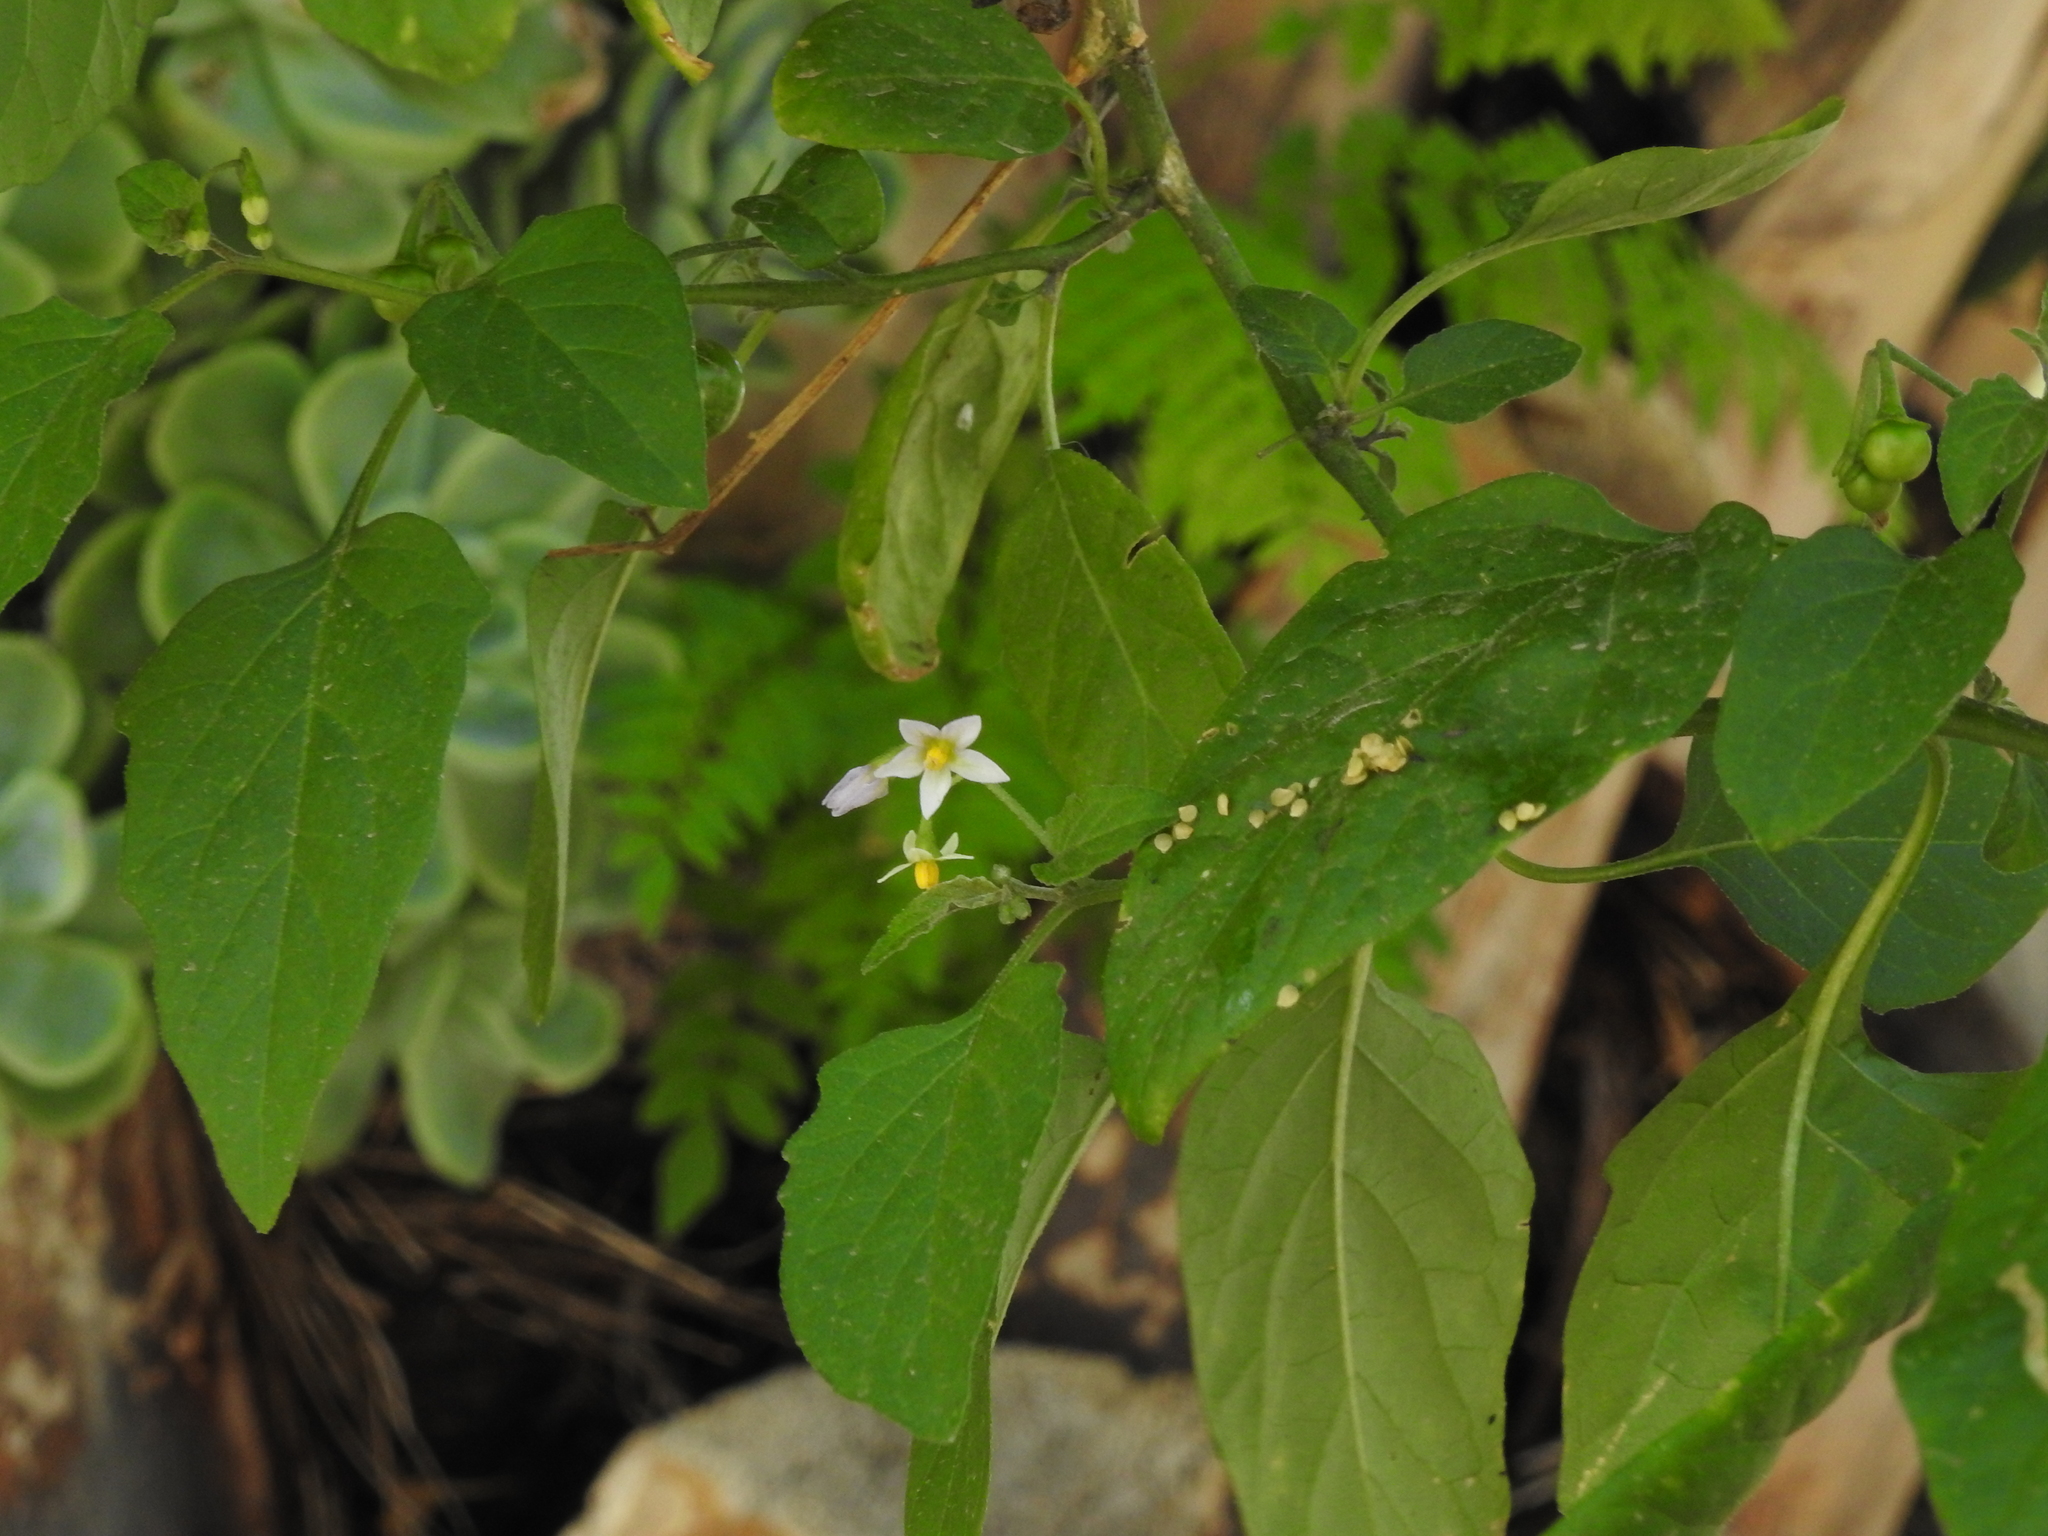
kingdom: Plantae
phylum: Tracheophyta
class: Magnoliopsida
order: Solanales
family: Solanaceae
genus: Solanum
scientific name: Solanum americanum
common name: American black nightshade
